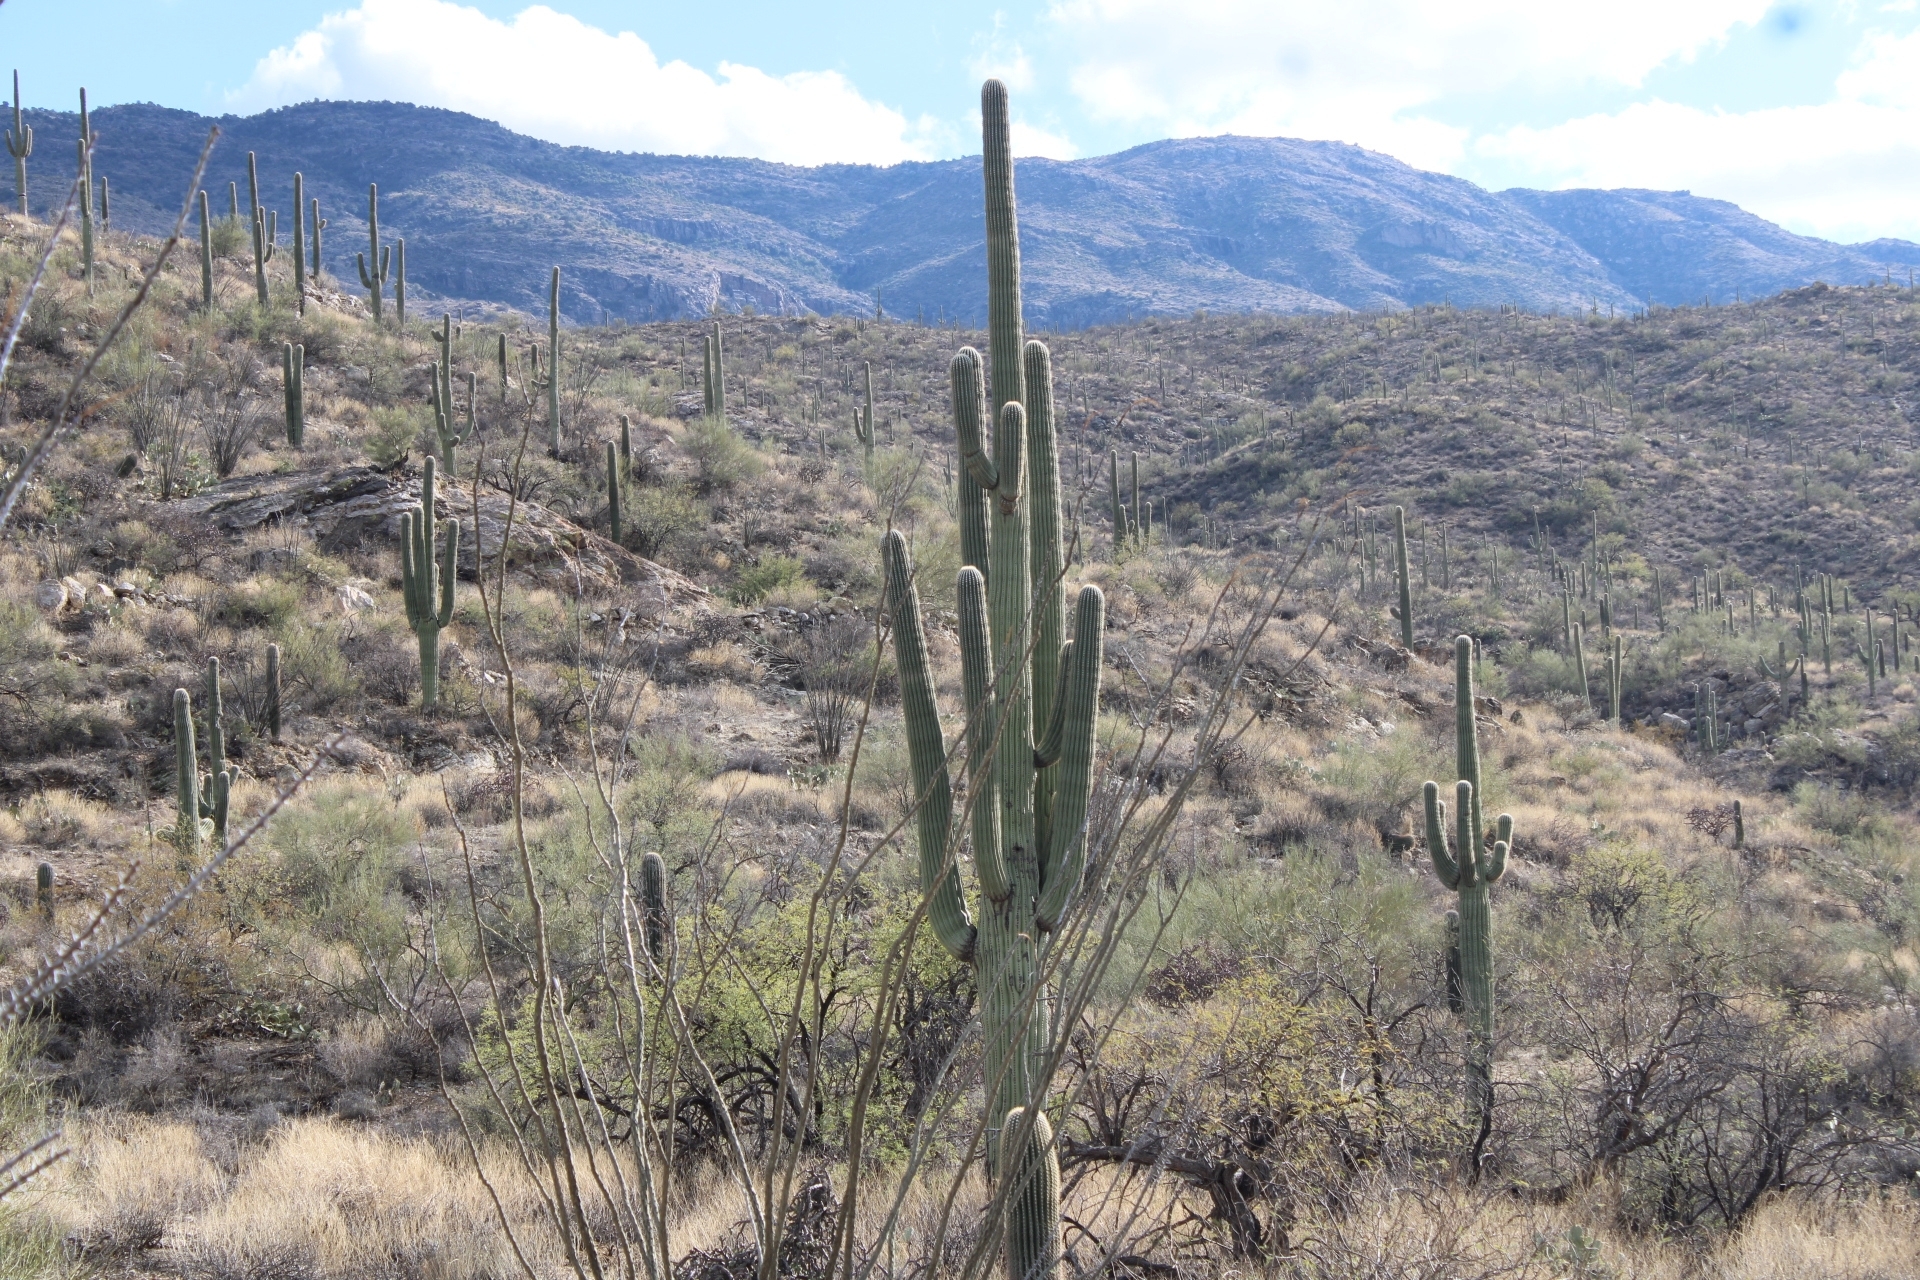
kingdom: Plantae
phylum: Tracheophyta
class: Magnoliopsida
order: Caryophyllales
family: Cactaceae
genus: Carnegiea
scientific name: Carnegiea gigantea
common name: Saguaro
